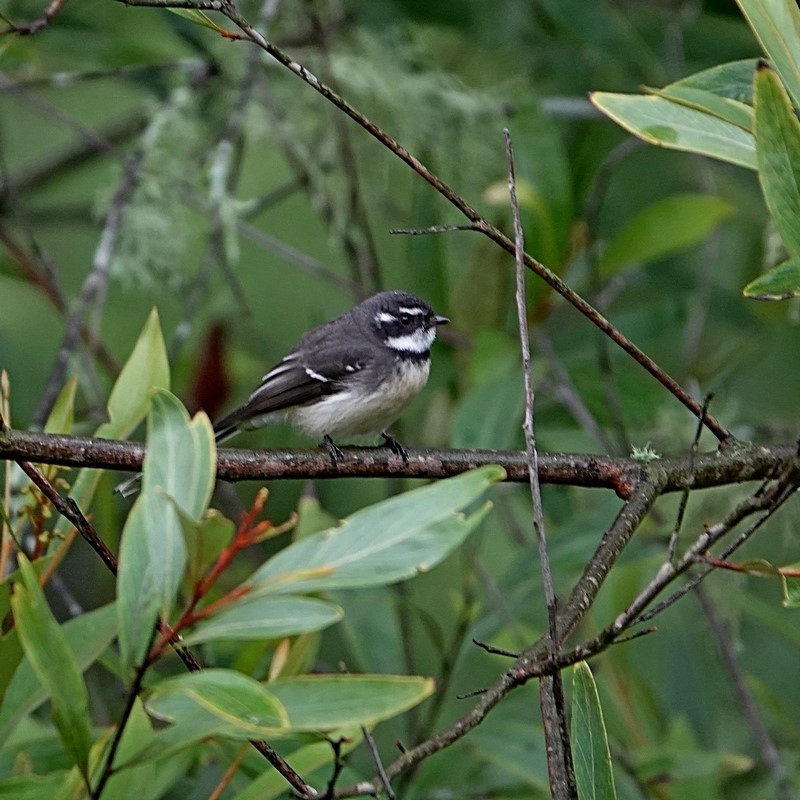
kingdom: Animalia
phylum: Chordata
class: Aves
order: Passeriformes
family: Rhipiduridae
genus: Rhipidura
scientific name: Rhipidura albiscapa
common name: Grey fantail
